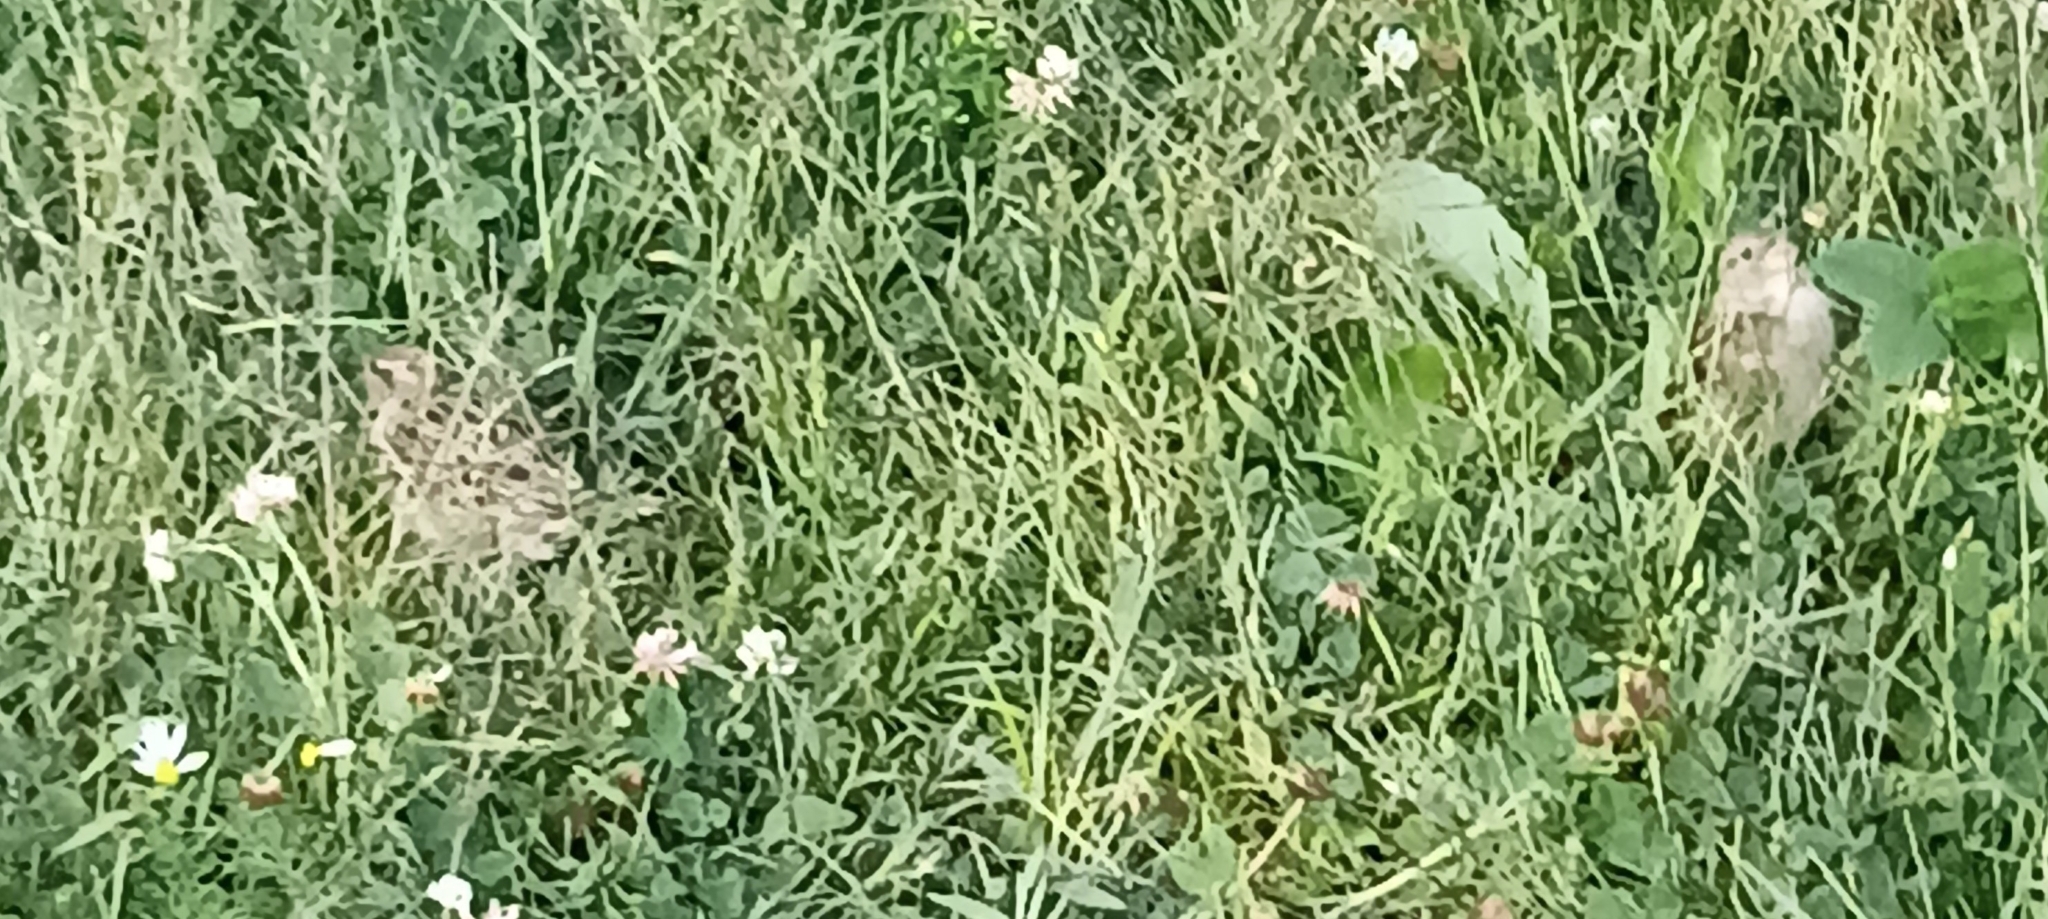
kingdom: Animalia
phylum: Chordata
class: Aves
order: Passeriformes
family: Passeridae
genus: Passer
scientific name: Passer domesticus
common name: House sparrow
